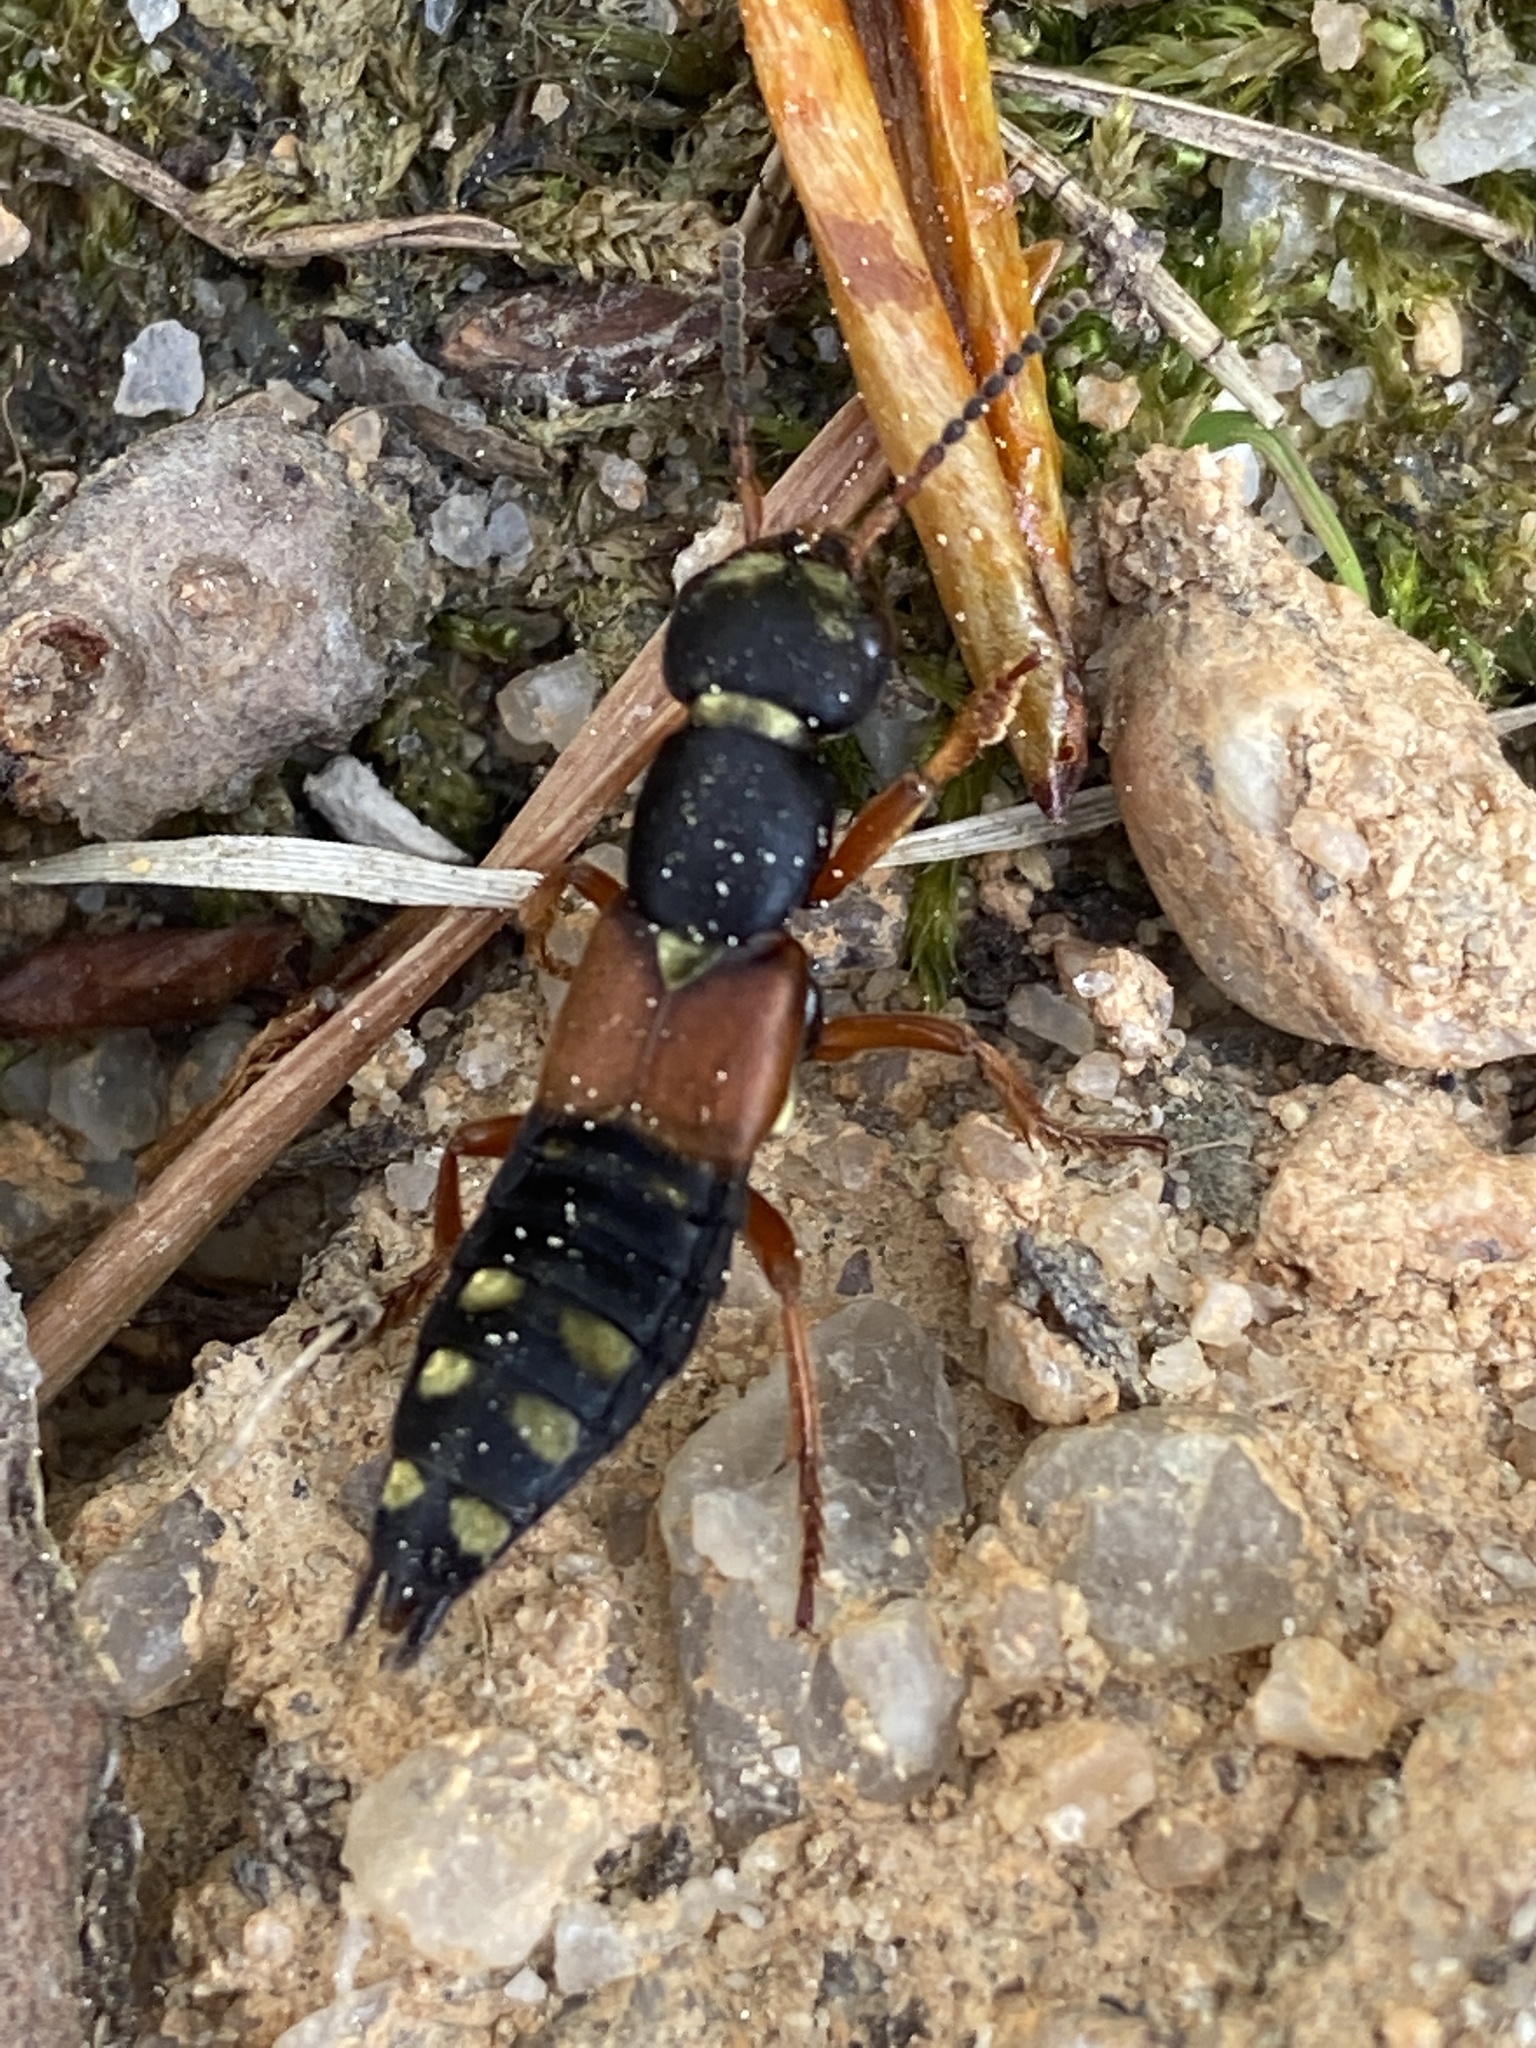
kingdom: Animalia
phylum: Arthropoda
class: Insecta
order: Coleoptera
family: Staphylinidae
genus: Staphylinus
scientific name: Staphylinus erythropterus
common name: Staph beetle
